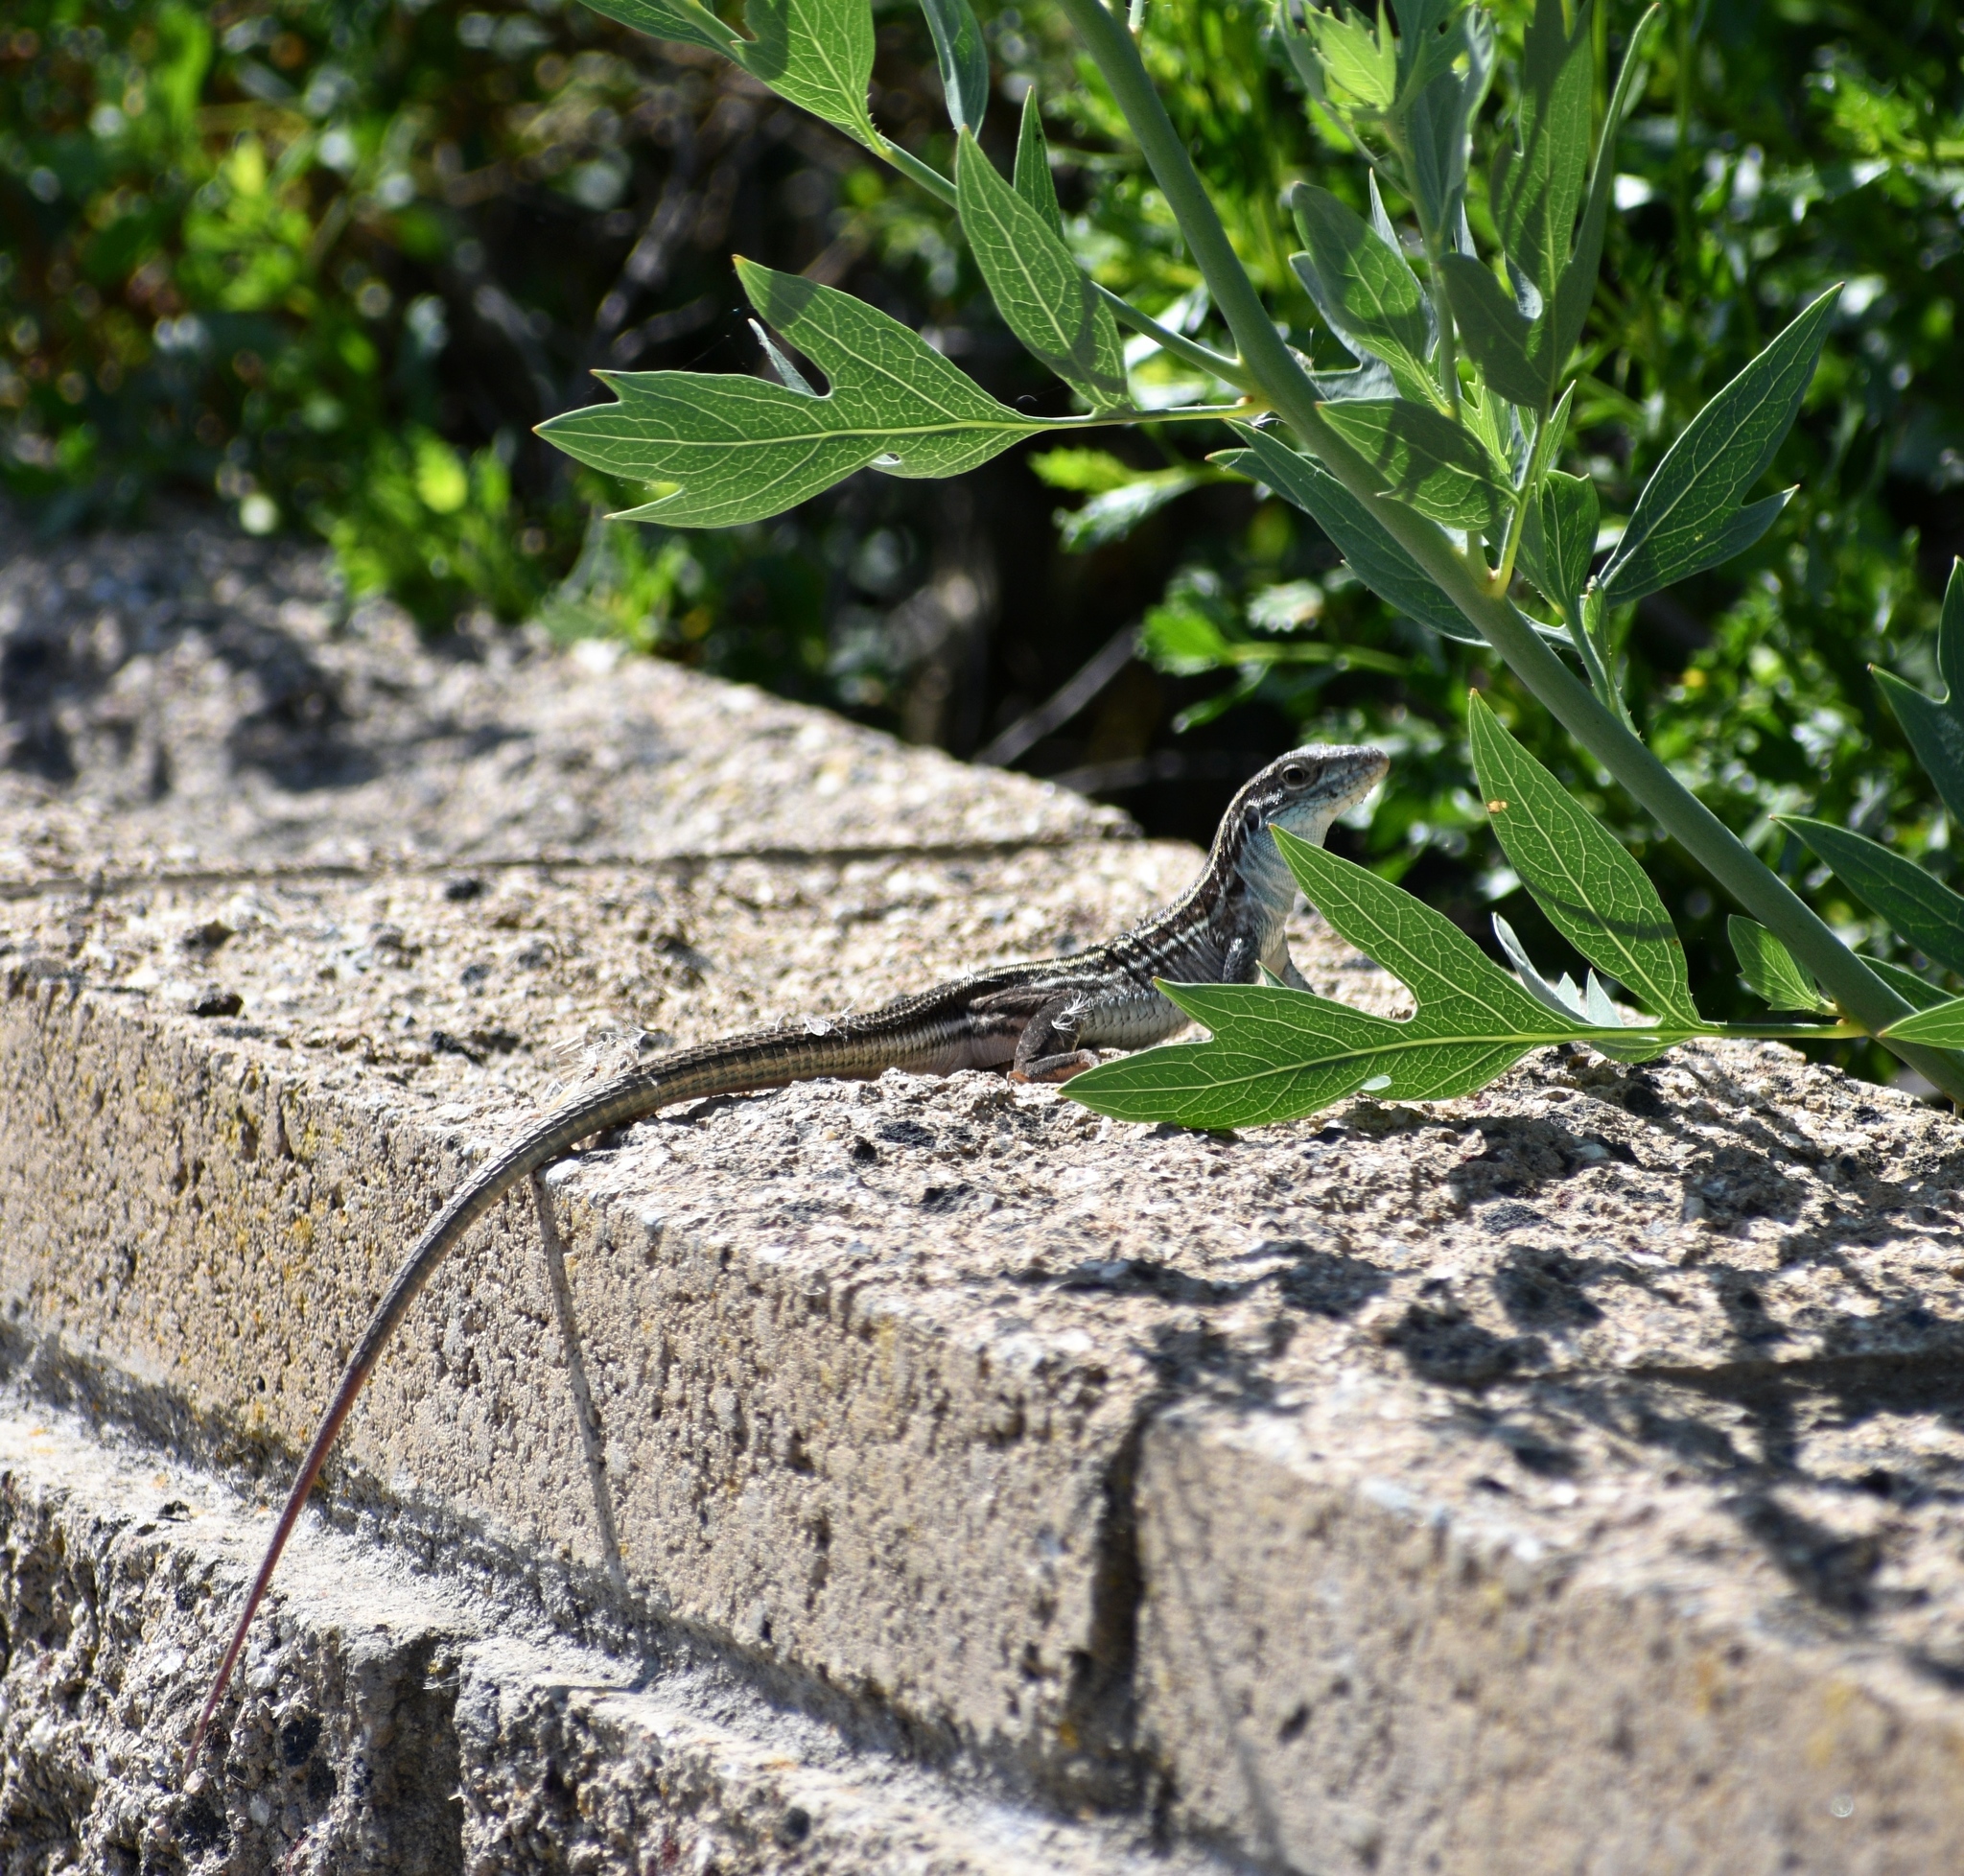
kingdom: Animalia
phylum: Chordata
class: Squamata
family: Teiidae
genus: Aspidoscelis
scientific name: Aspidoscelis sonorae
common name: Sonoran spotted whiptail
